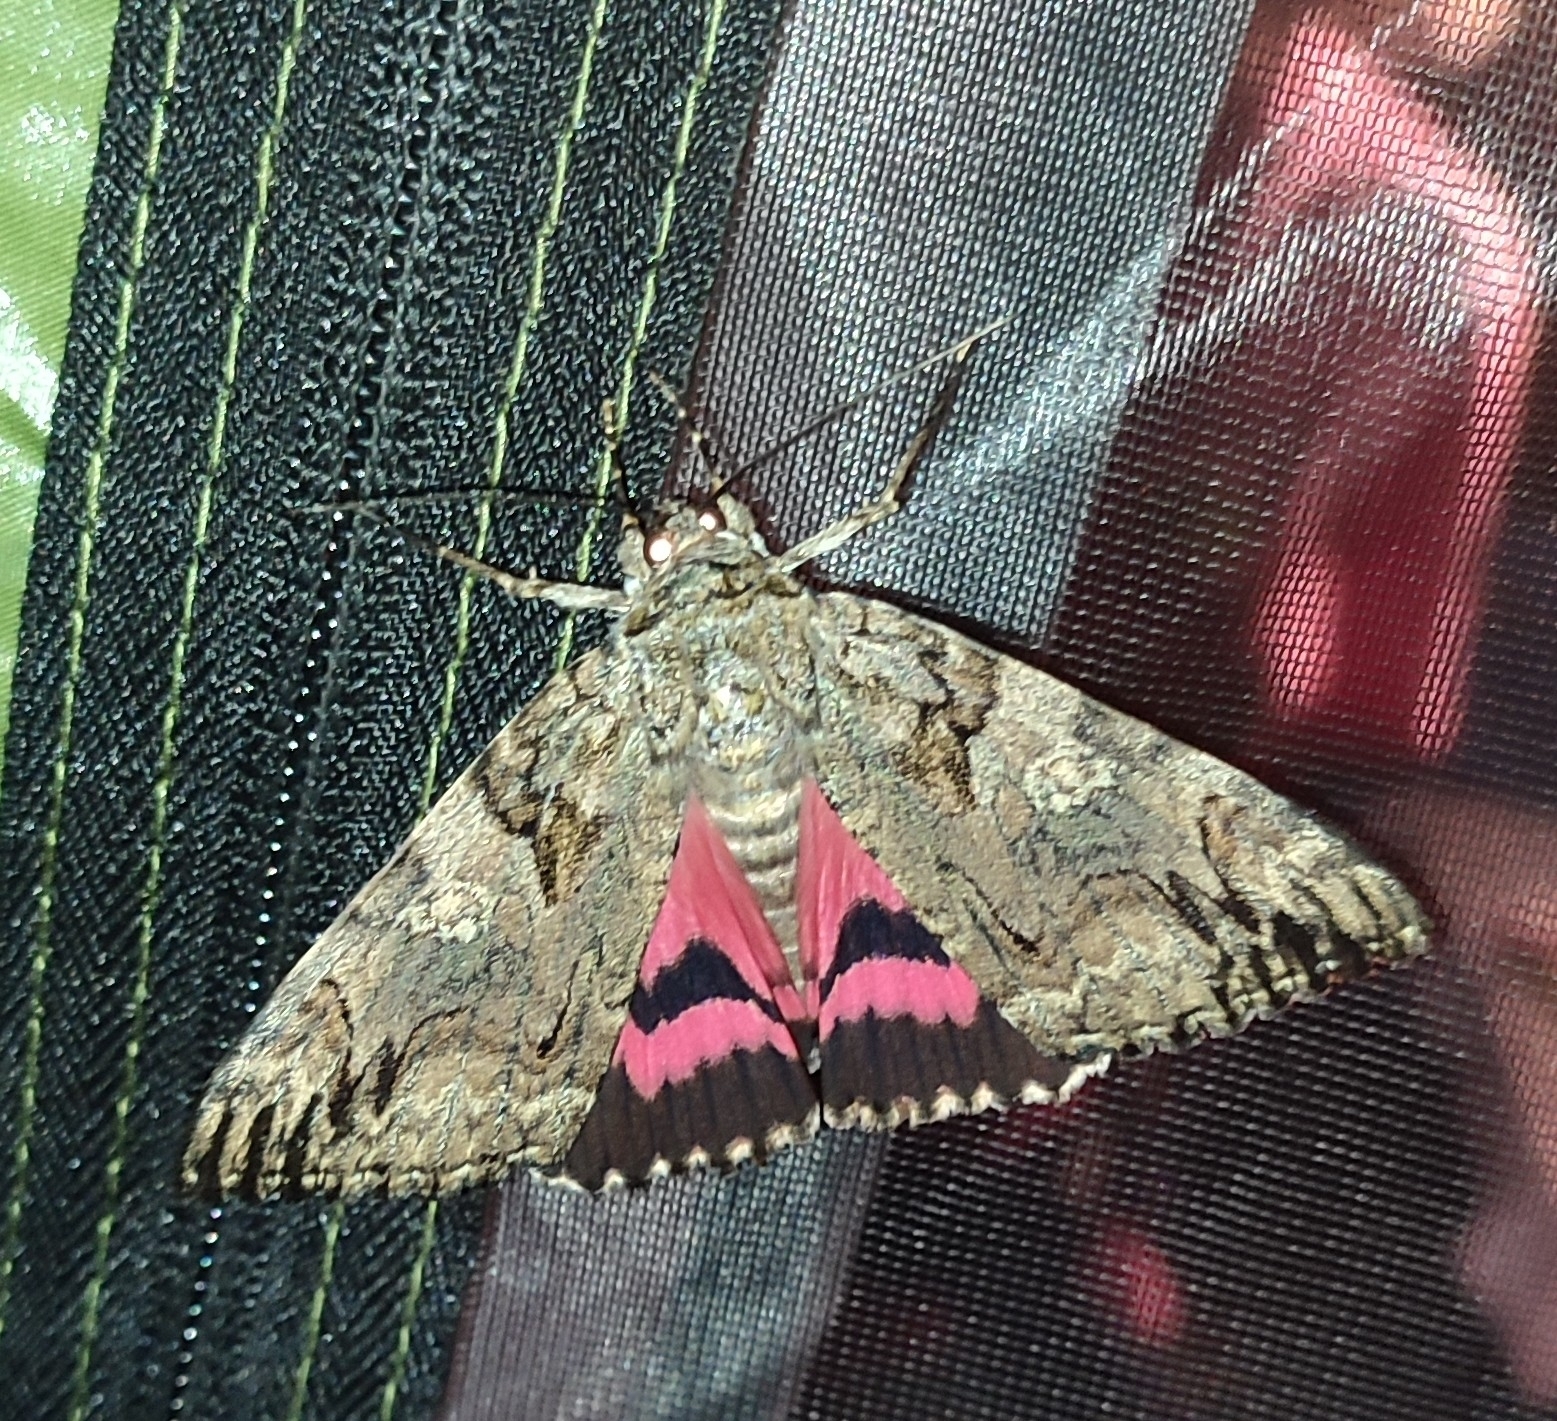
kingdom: Animalia
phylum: Arthropoda
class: Insecta
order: Lepidoptera
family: Erebidae
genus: Catocala
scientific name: Catocala sponsa
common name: Dark crimson underwing
